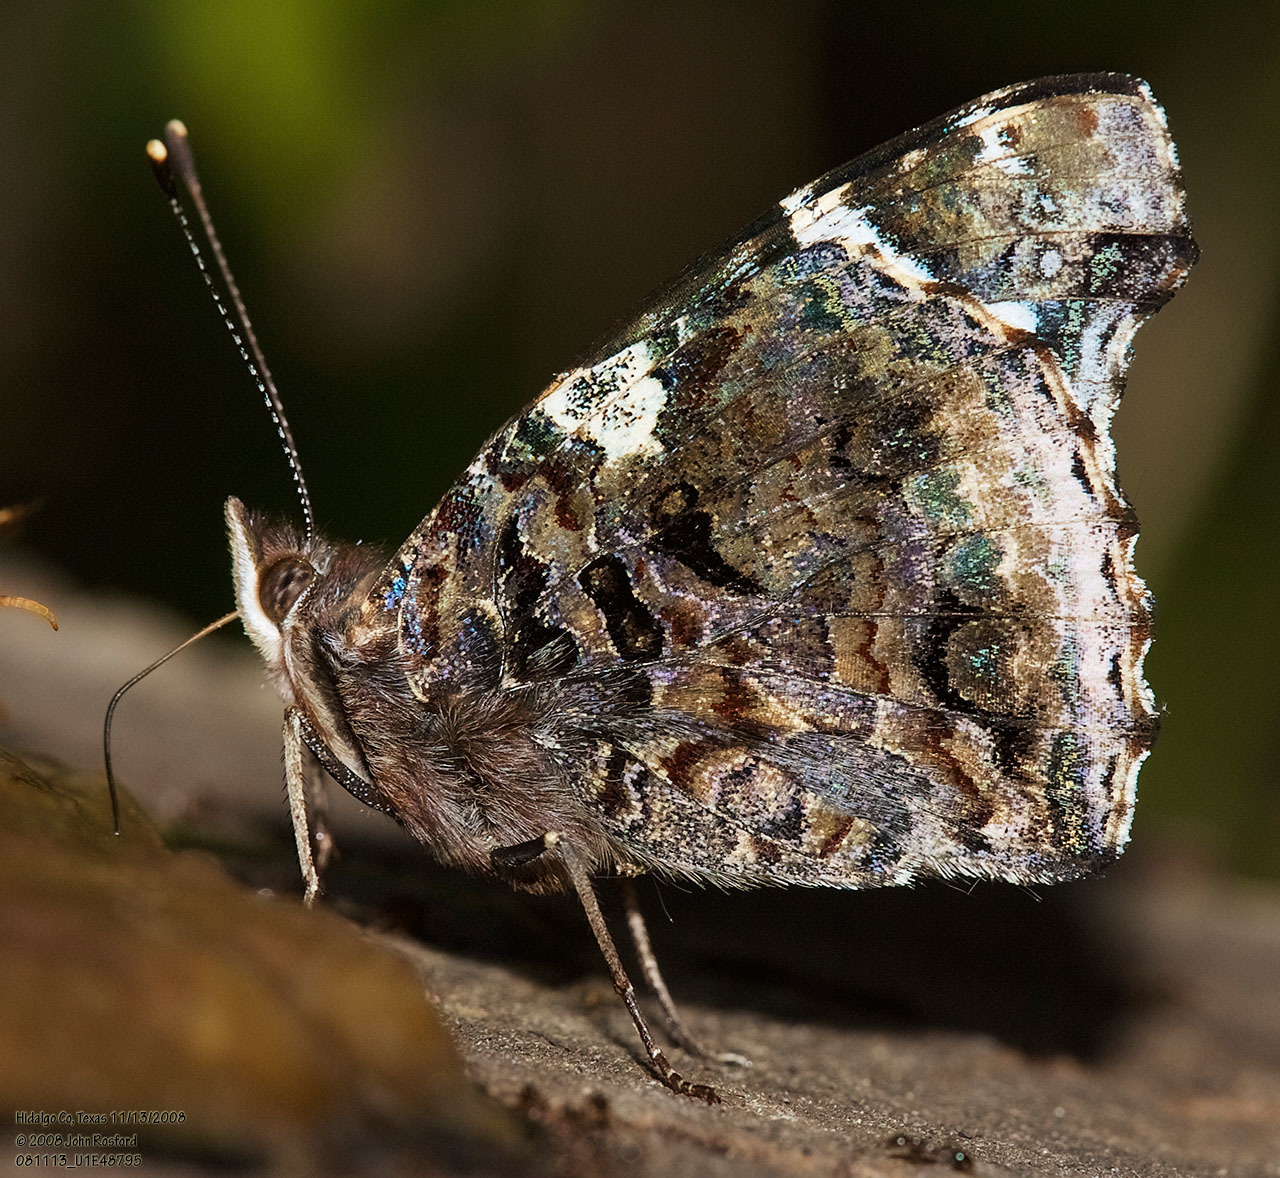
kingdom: Animalia
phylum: Arthropoda
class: Insecta
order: Lepidoptera
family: Nymphalidae
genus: Vanessa
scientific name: Vanessa atalanta
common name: Red admiral
